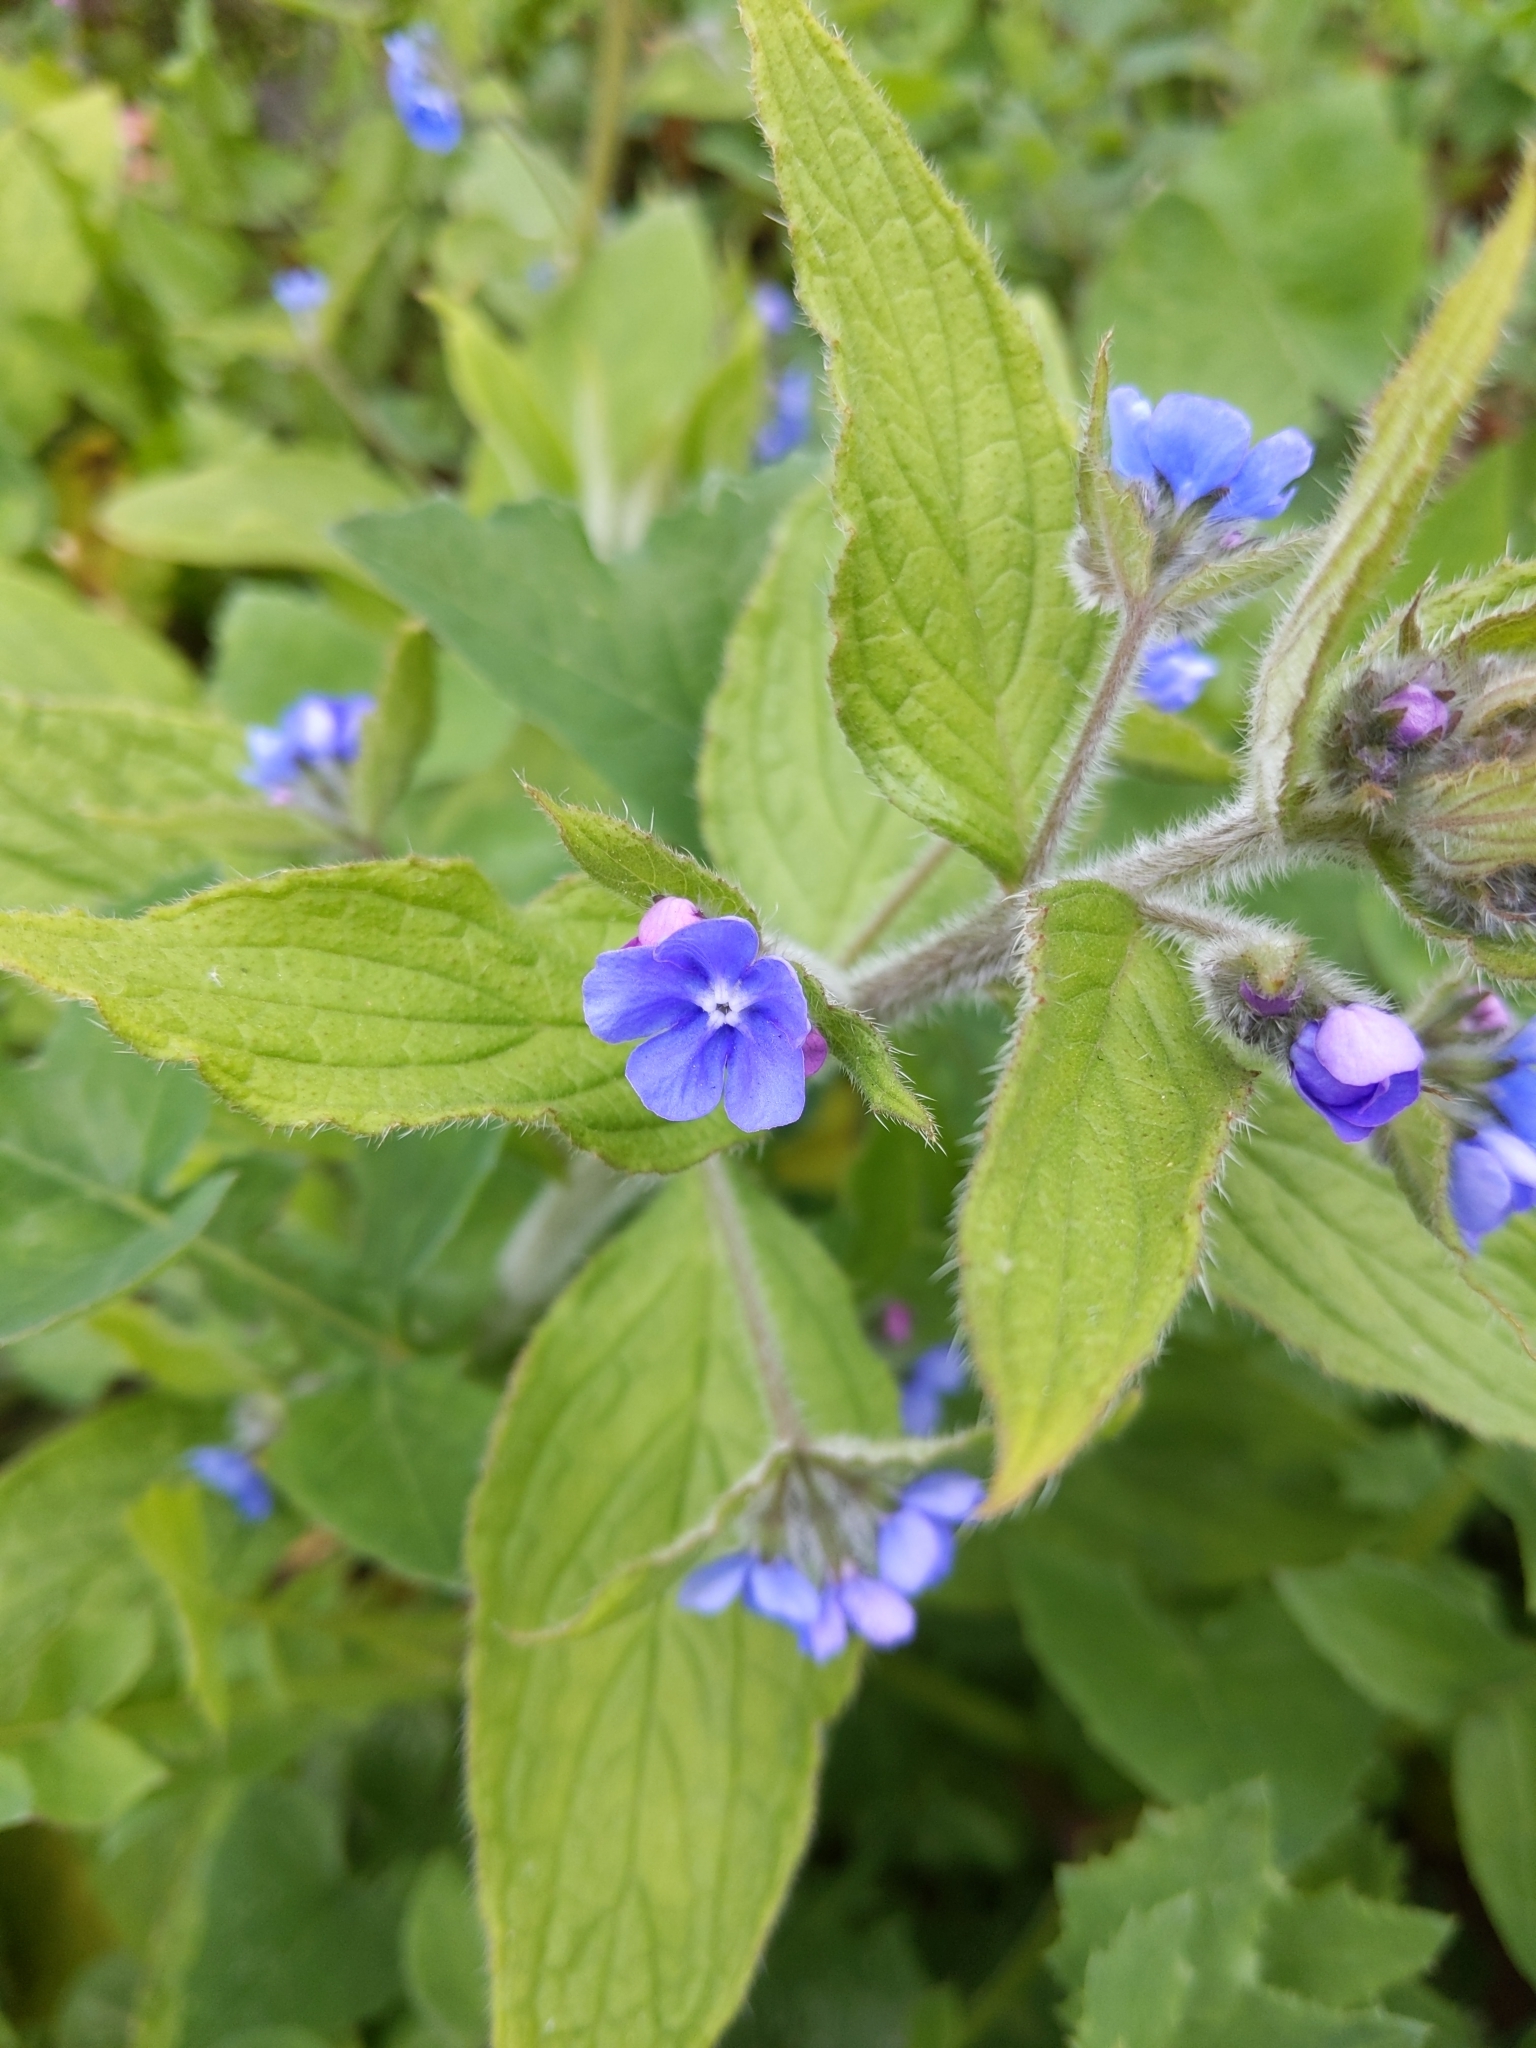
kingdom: Plantae
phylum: Tracheophyta
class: Magnoliopsida
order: Boraginales
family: Boraginaceae
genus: Pentaglottis
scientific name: Pentaglottis sempervirens
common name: Green alkanet
